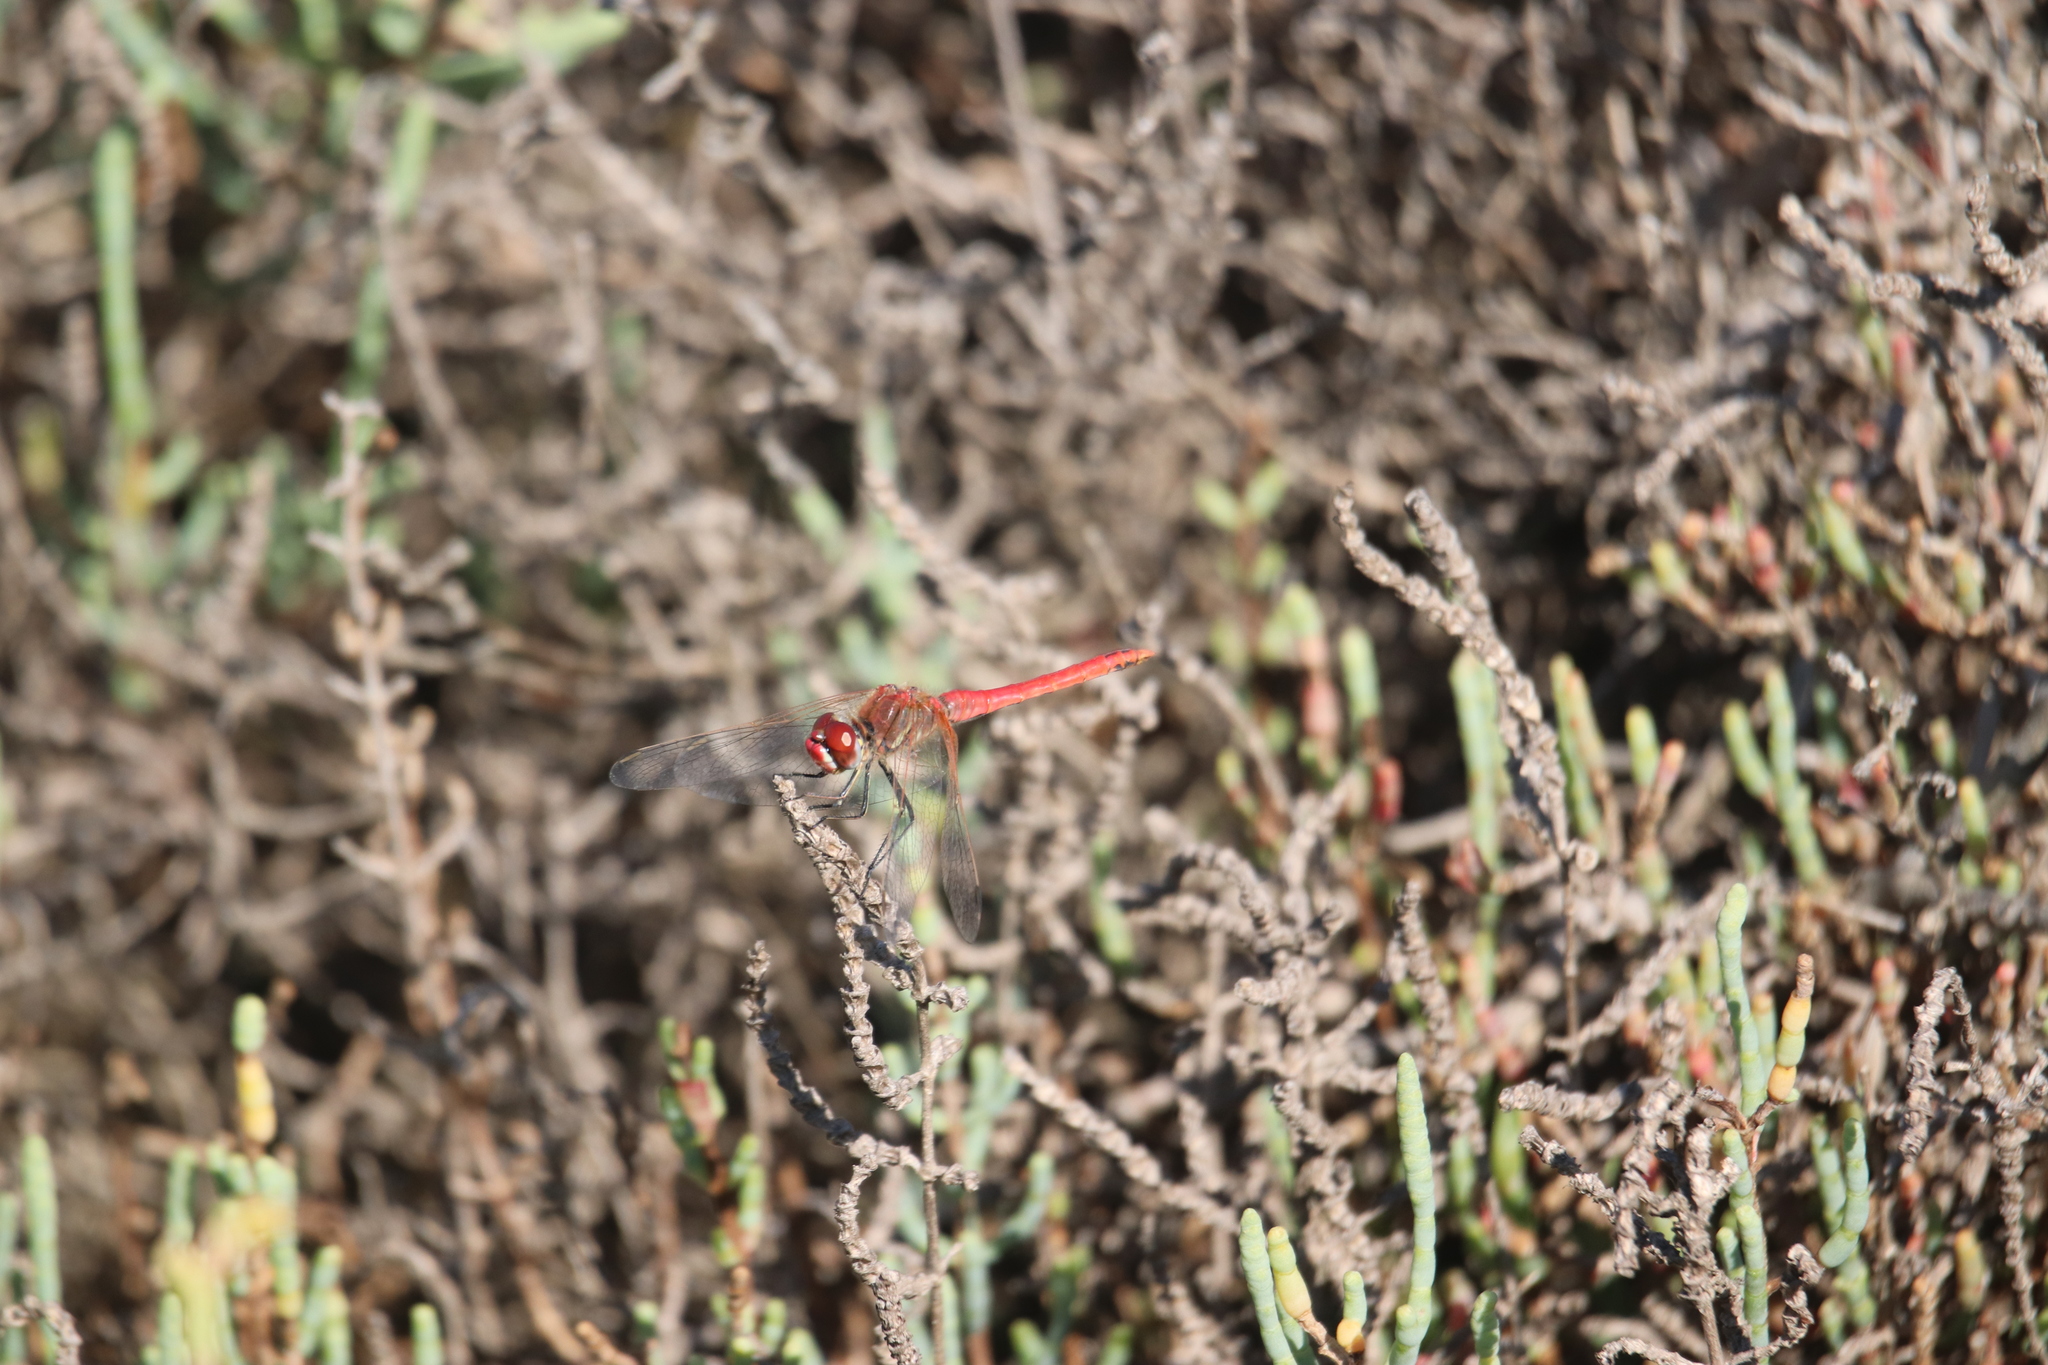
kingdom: Animalia
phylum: Arthropoda
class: Insecta
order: Odonata
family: Libellulidae
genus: Sympetrum
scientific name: Sympetrum fonscolombii
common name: Red-veined darter
